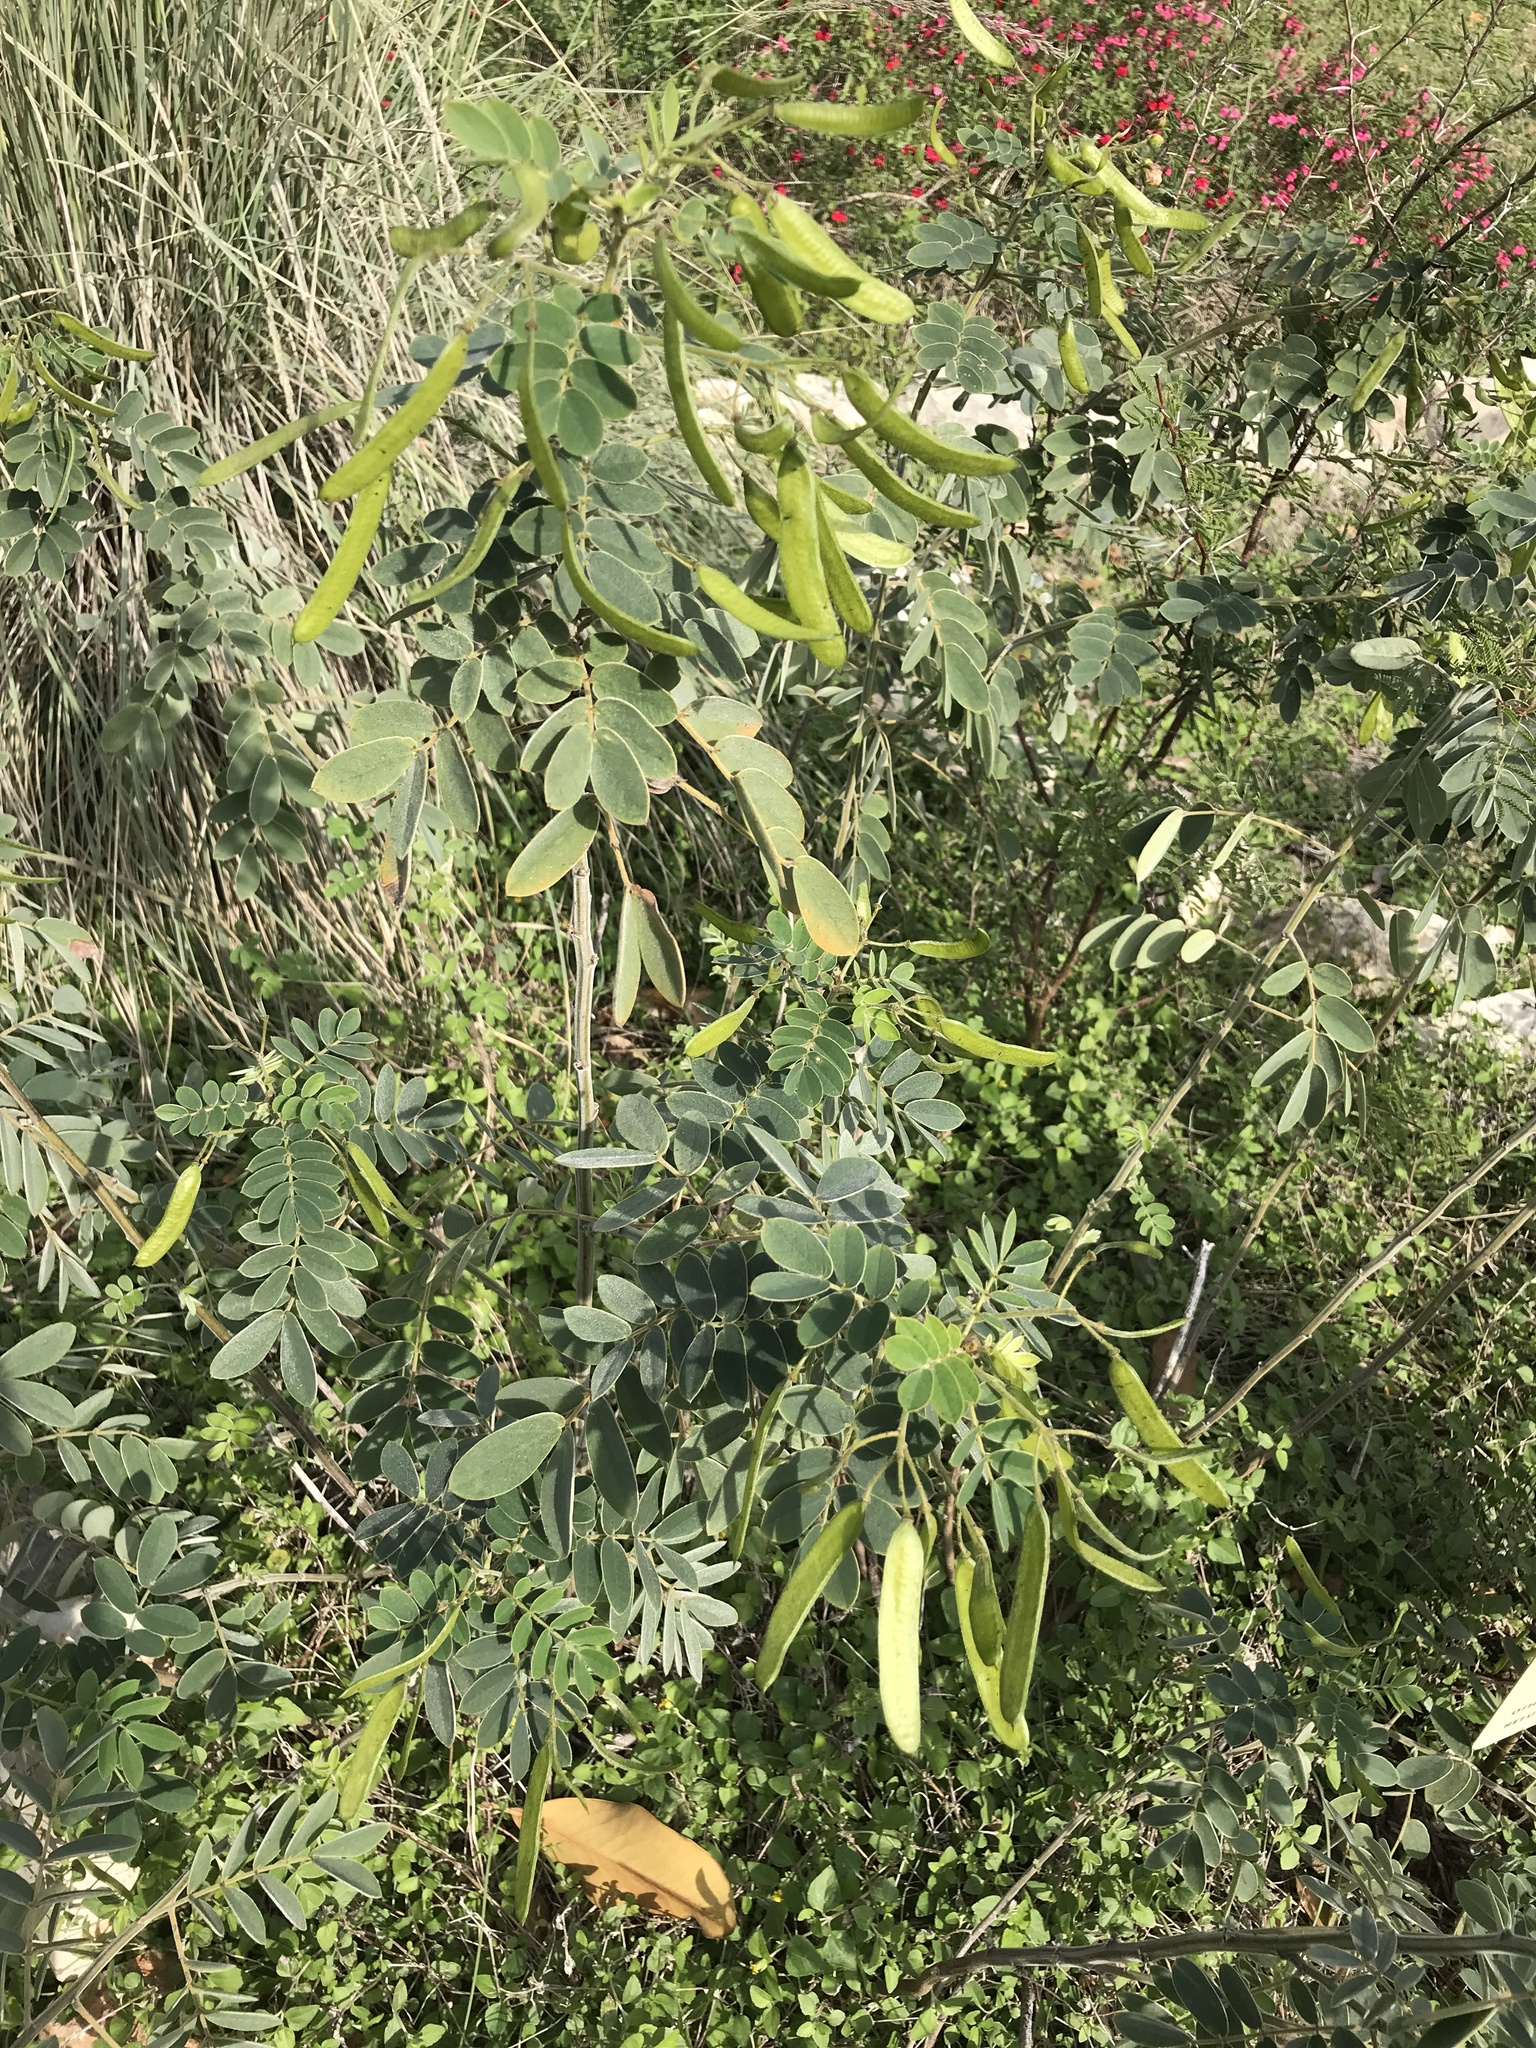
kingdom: Plantae
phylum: Tracheophyta
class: Magnoliopsida
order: Fabales
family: Fabaceae
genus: Senna
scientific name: Senna lindheimeriana
